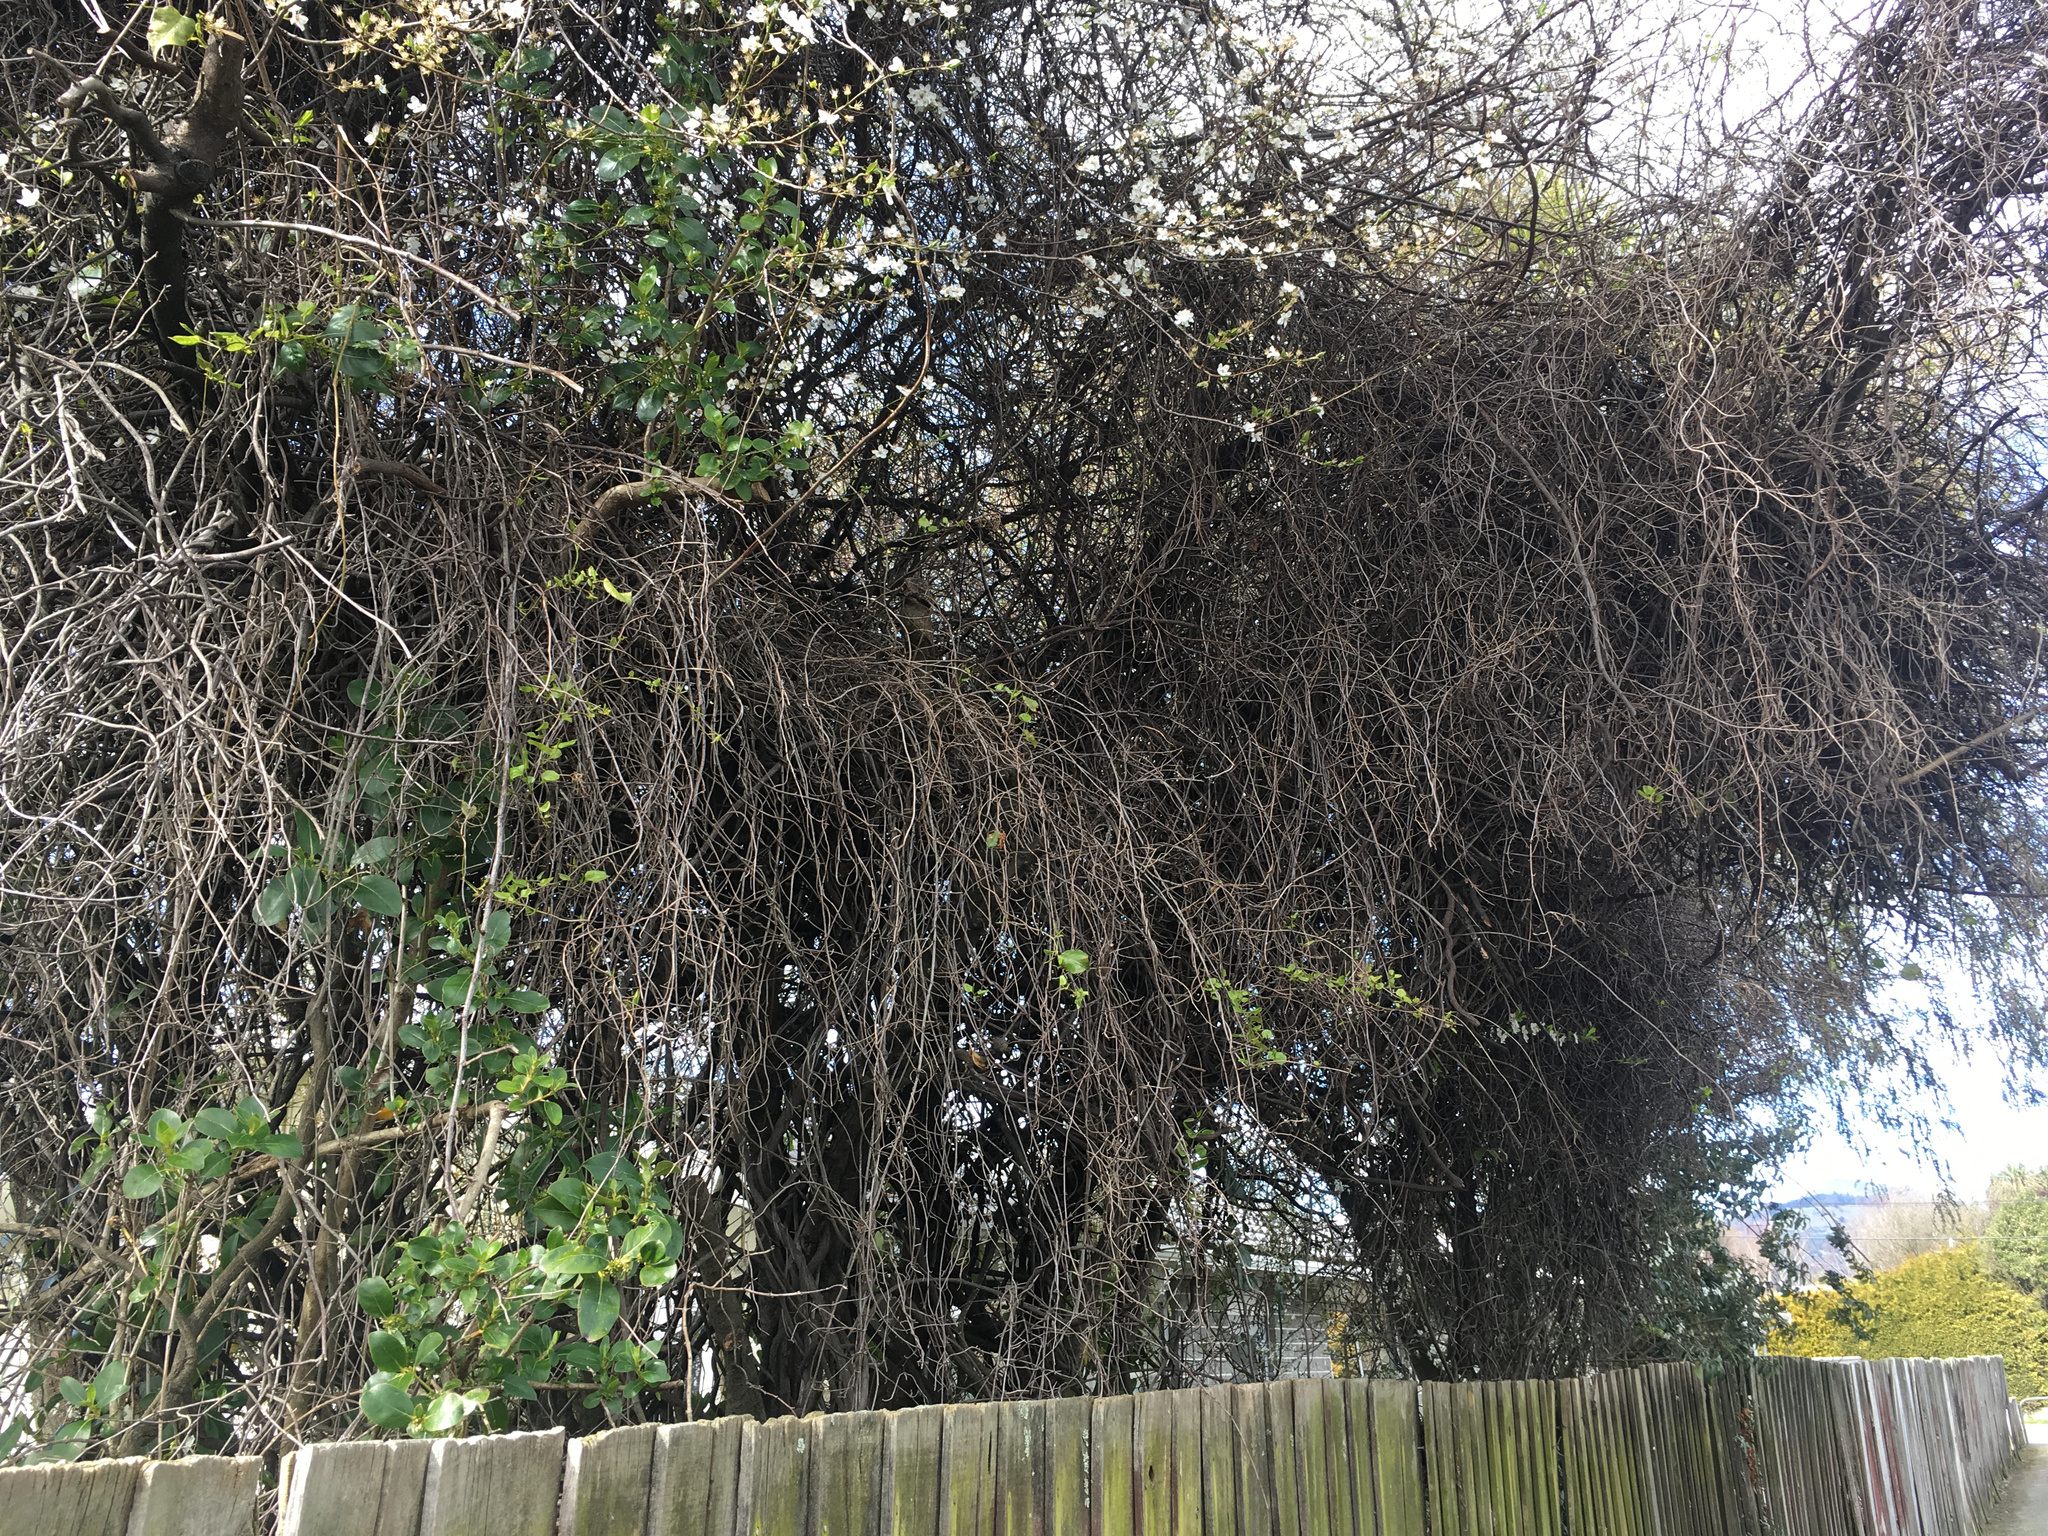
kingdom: Plantae
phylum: Tracheophyta
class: Magnoliopsida
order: Caryophyllales
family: Polygonaceae
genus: Muehlenbeckia
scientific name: Muehlenbeckia australis
